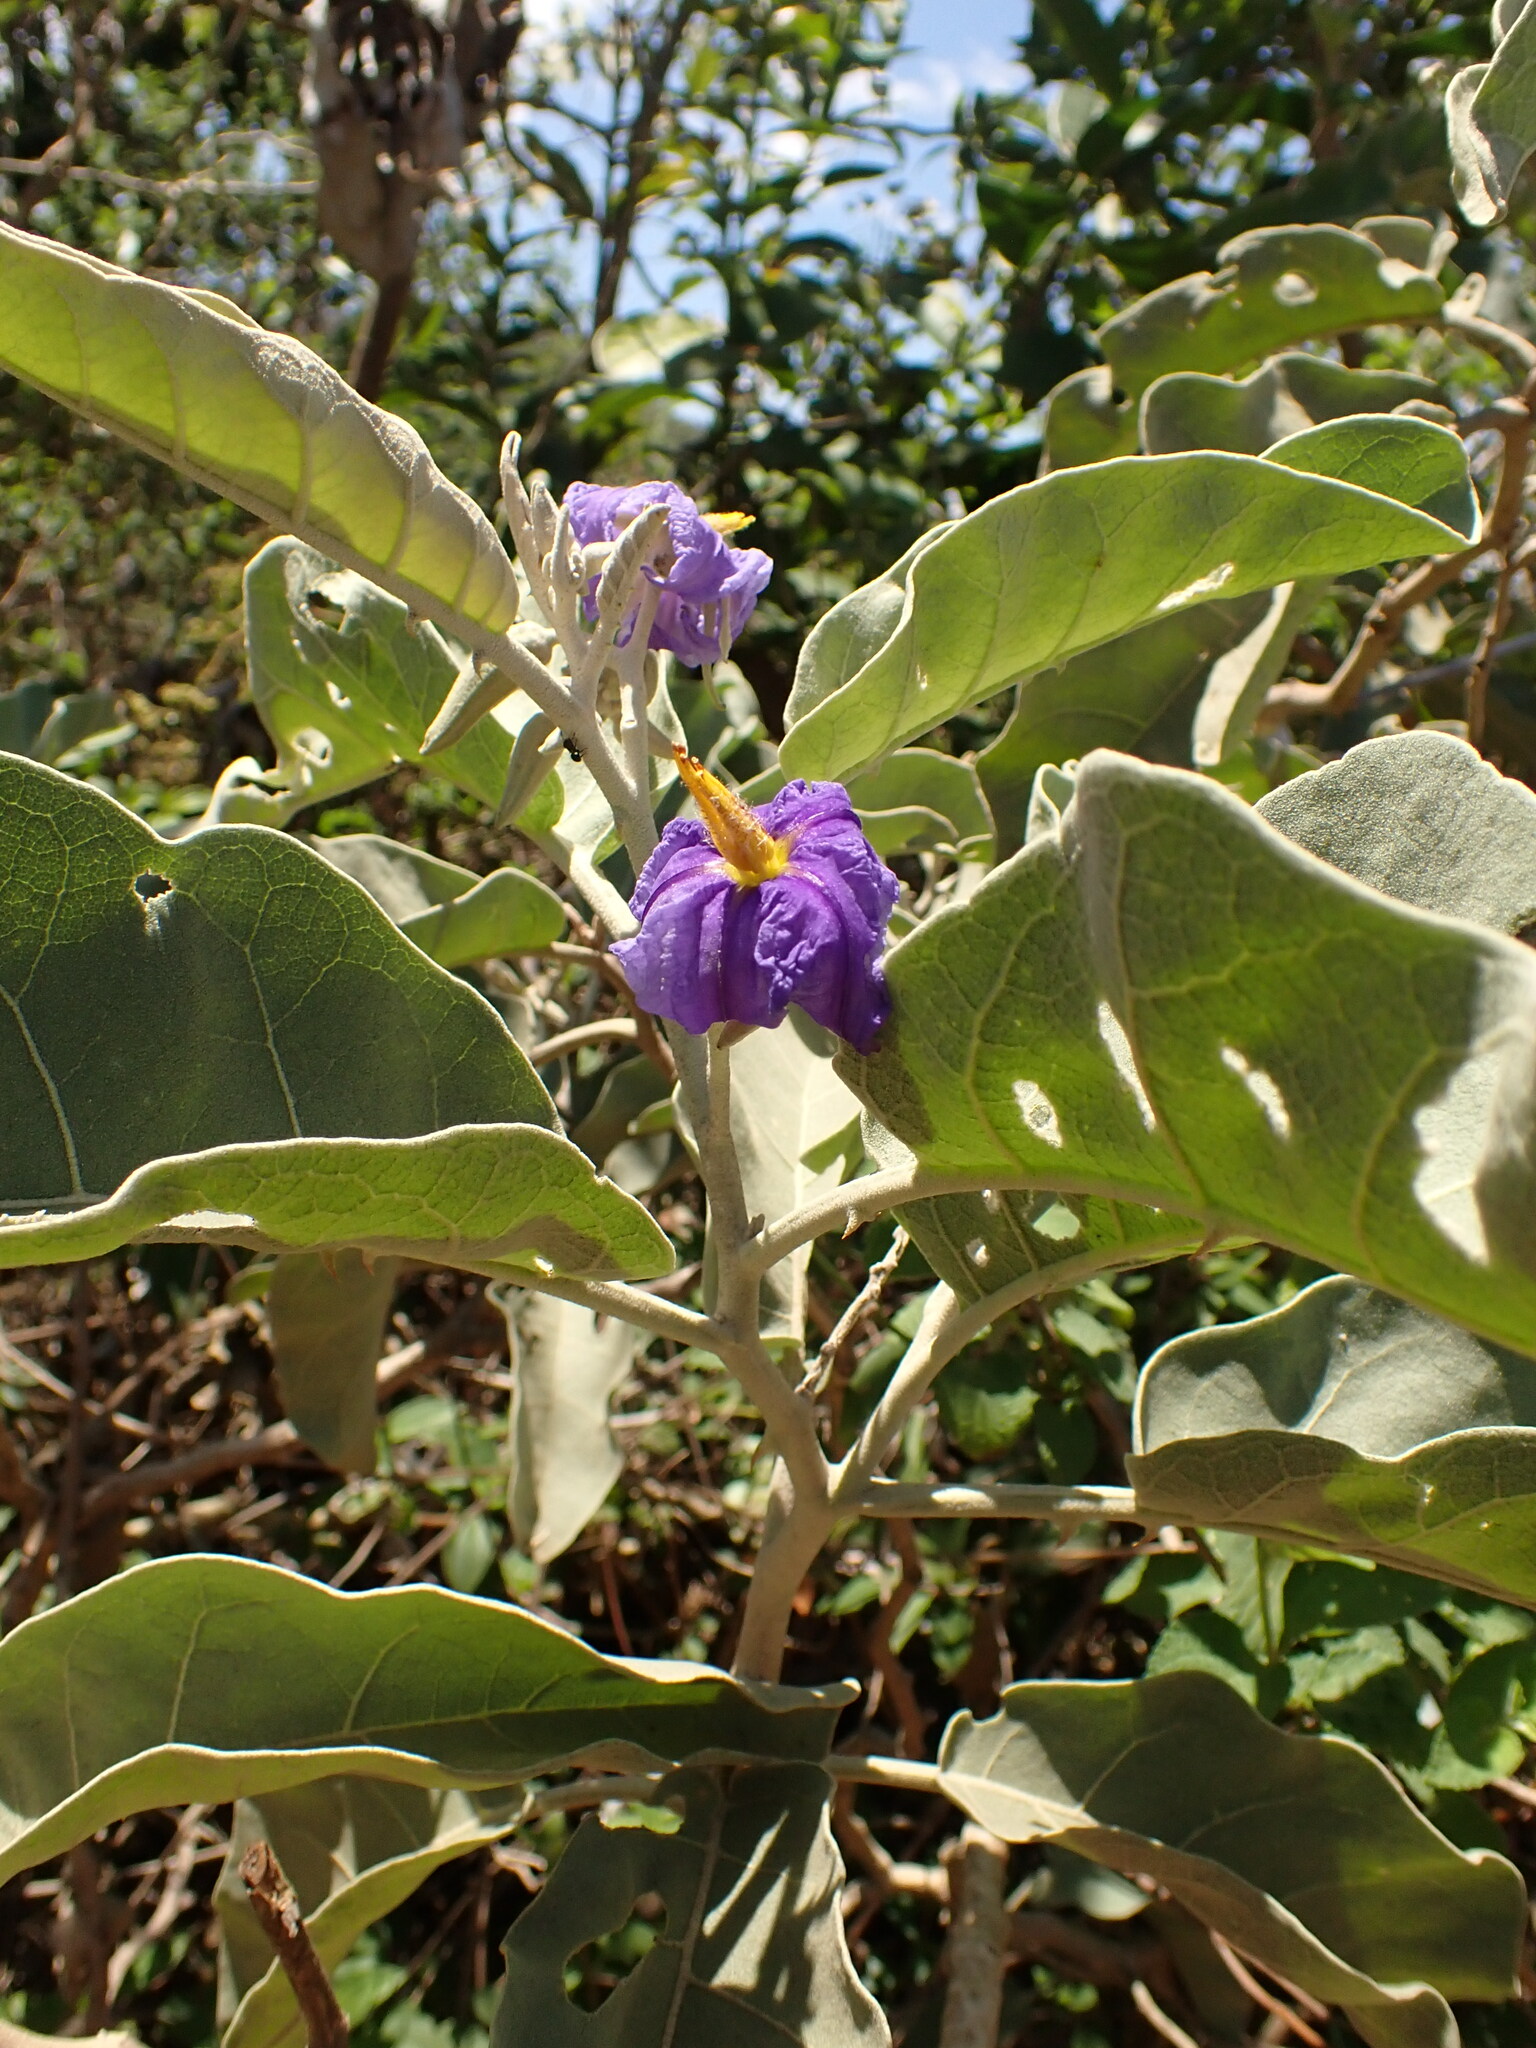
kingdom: Plantae
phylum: Tracheophyta
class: Magnoliopsida
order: Solanales
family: Solanaceae
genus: Solanum
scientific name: Solanum lycocarpum
